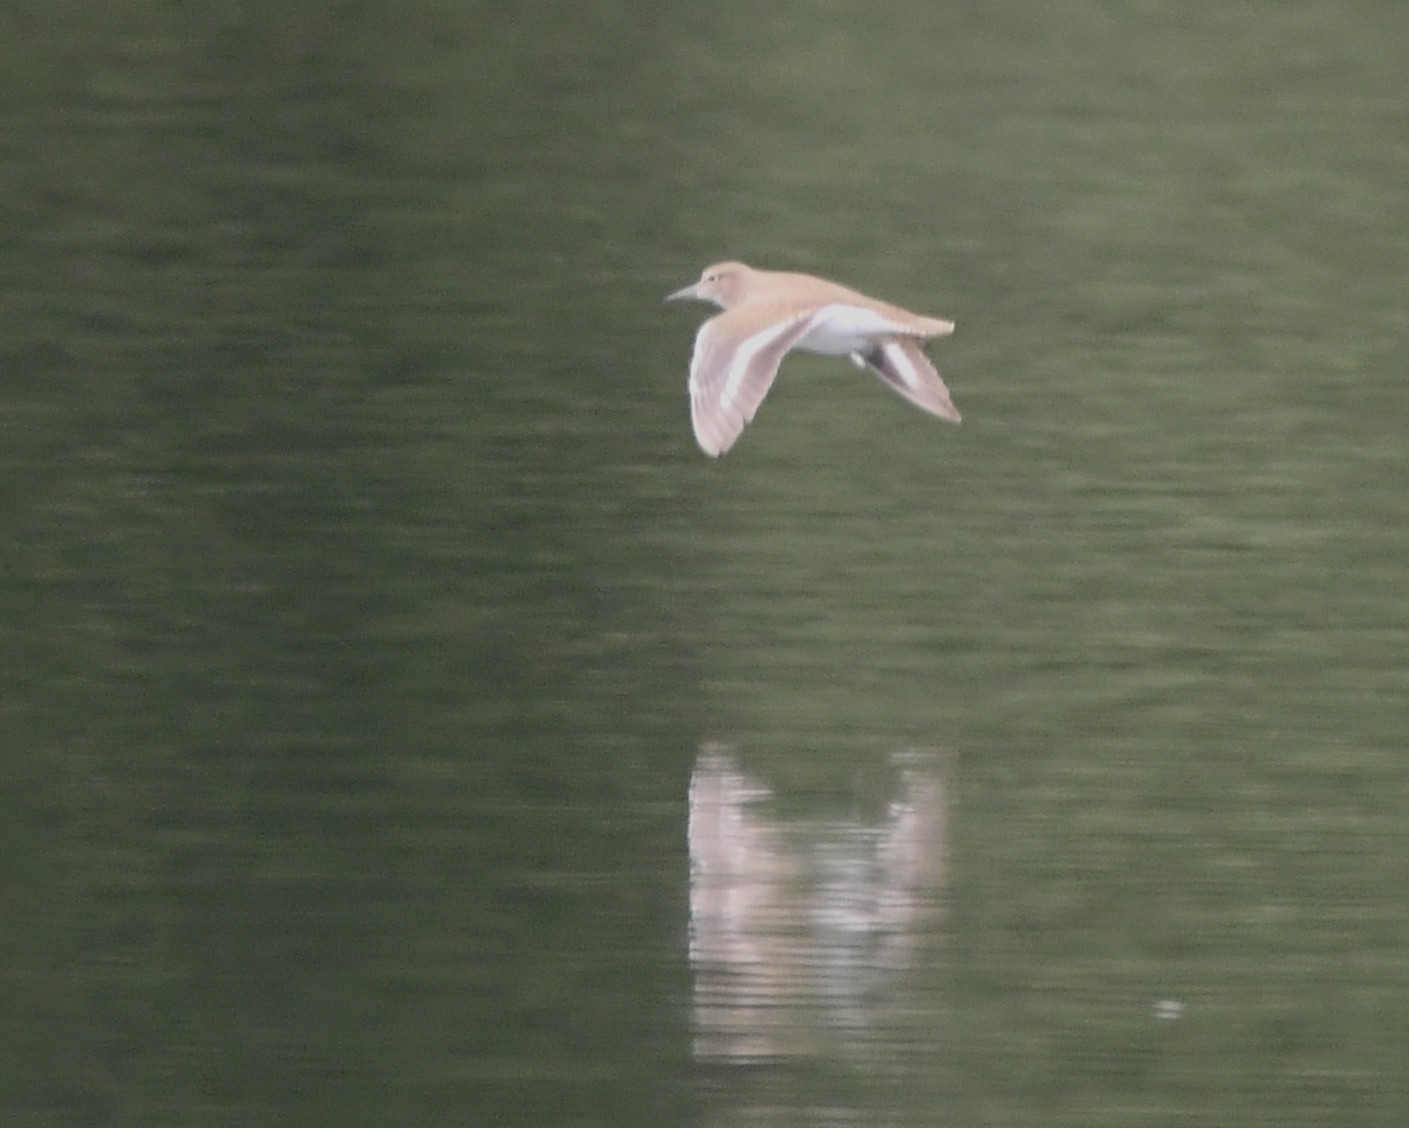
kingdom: Animalia
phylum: Chordata
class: Aves
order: Charadriiformes
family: Scolopacidae
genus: Actitis
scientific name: Actitis hypoleucos
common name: Common sandpiper
